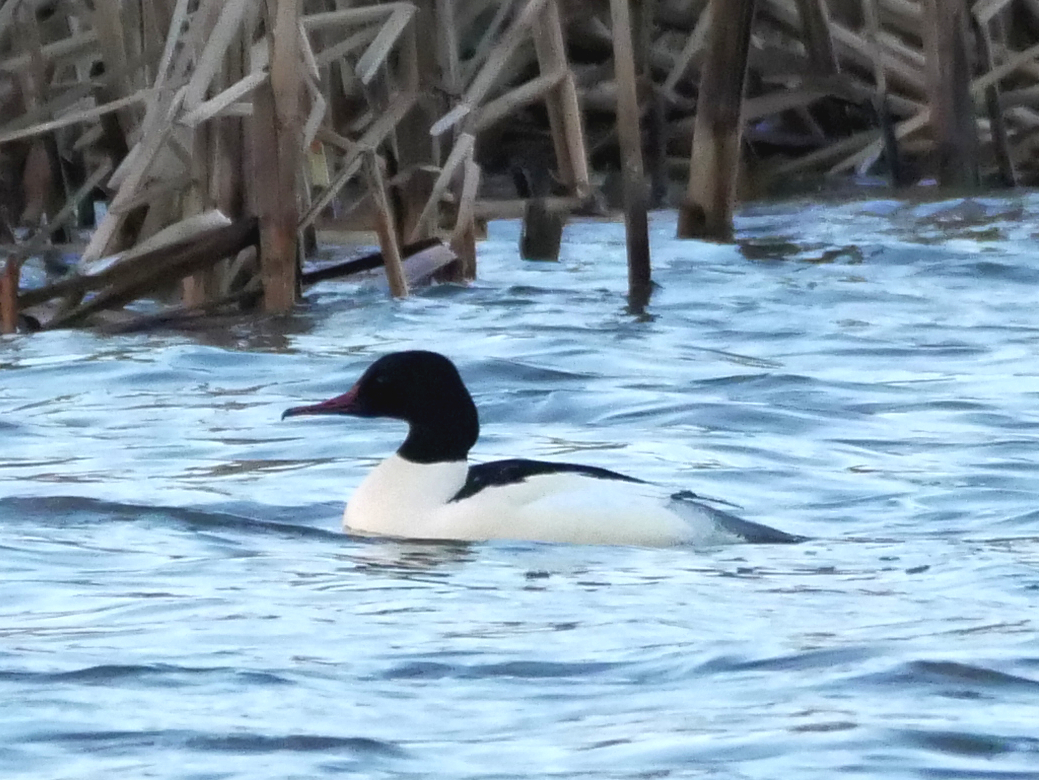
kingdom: Animalia
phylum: Chordata
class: Aves
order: Anseriformes
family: Anatidae
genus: Mergus
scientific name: Mergus merganser
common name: Common merganser
